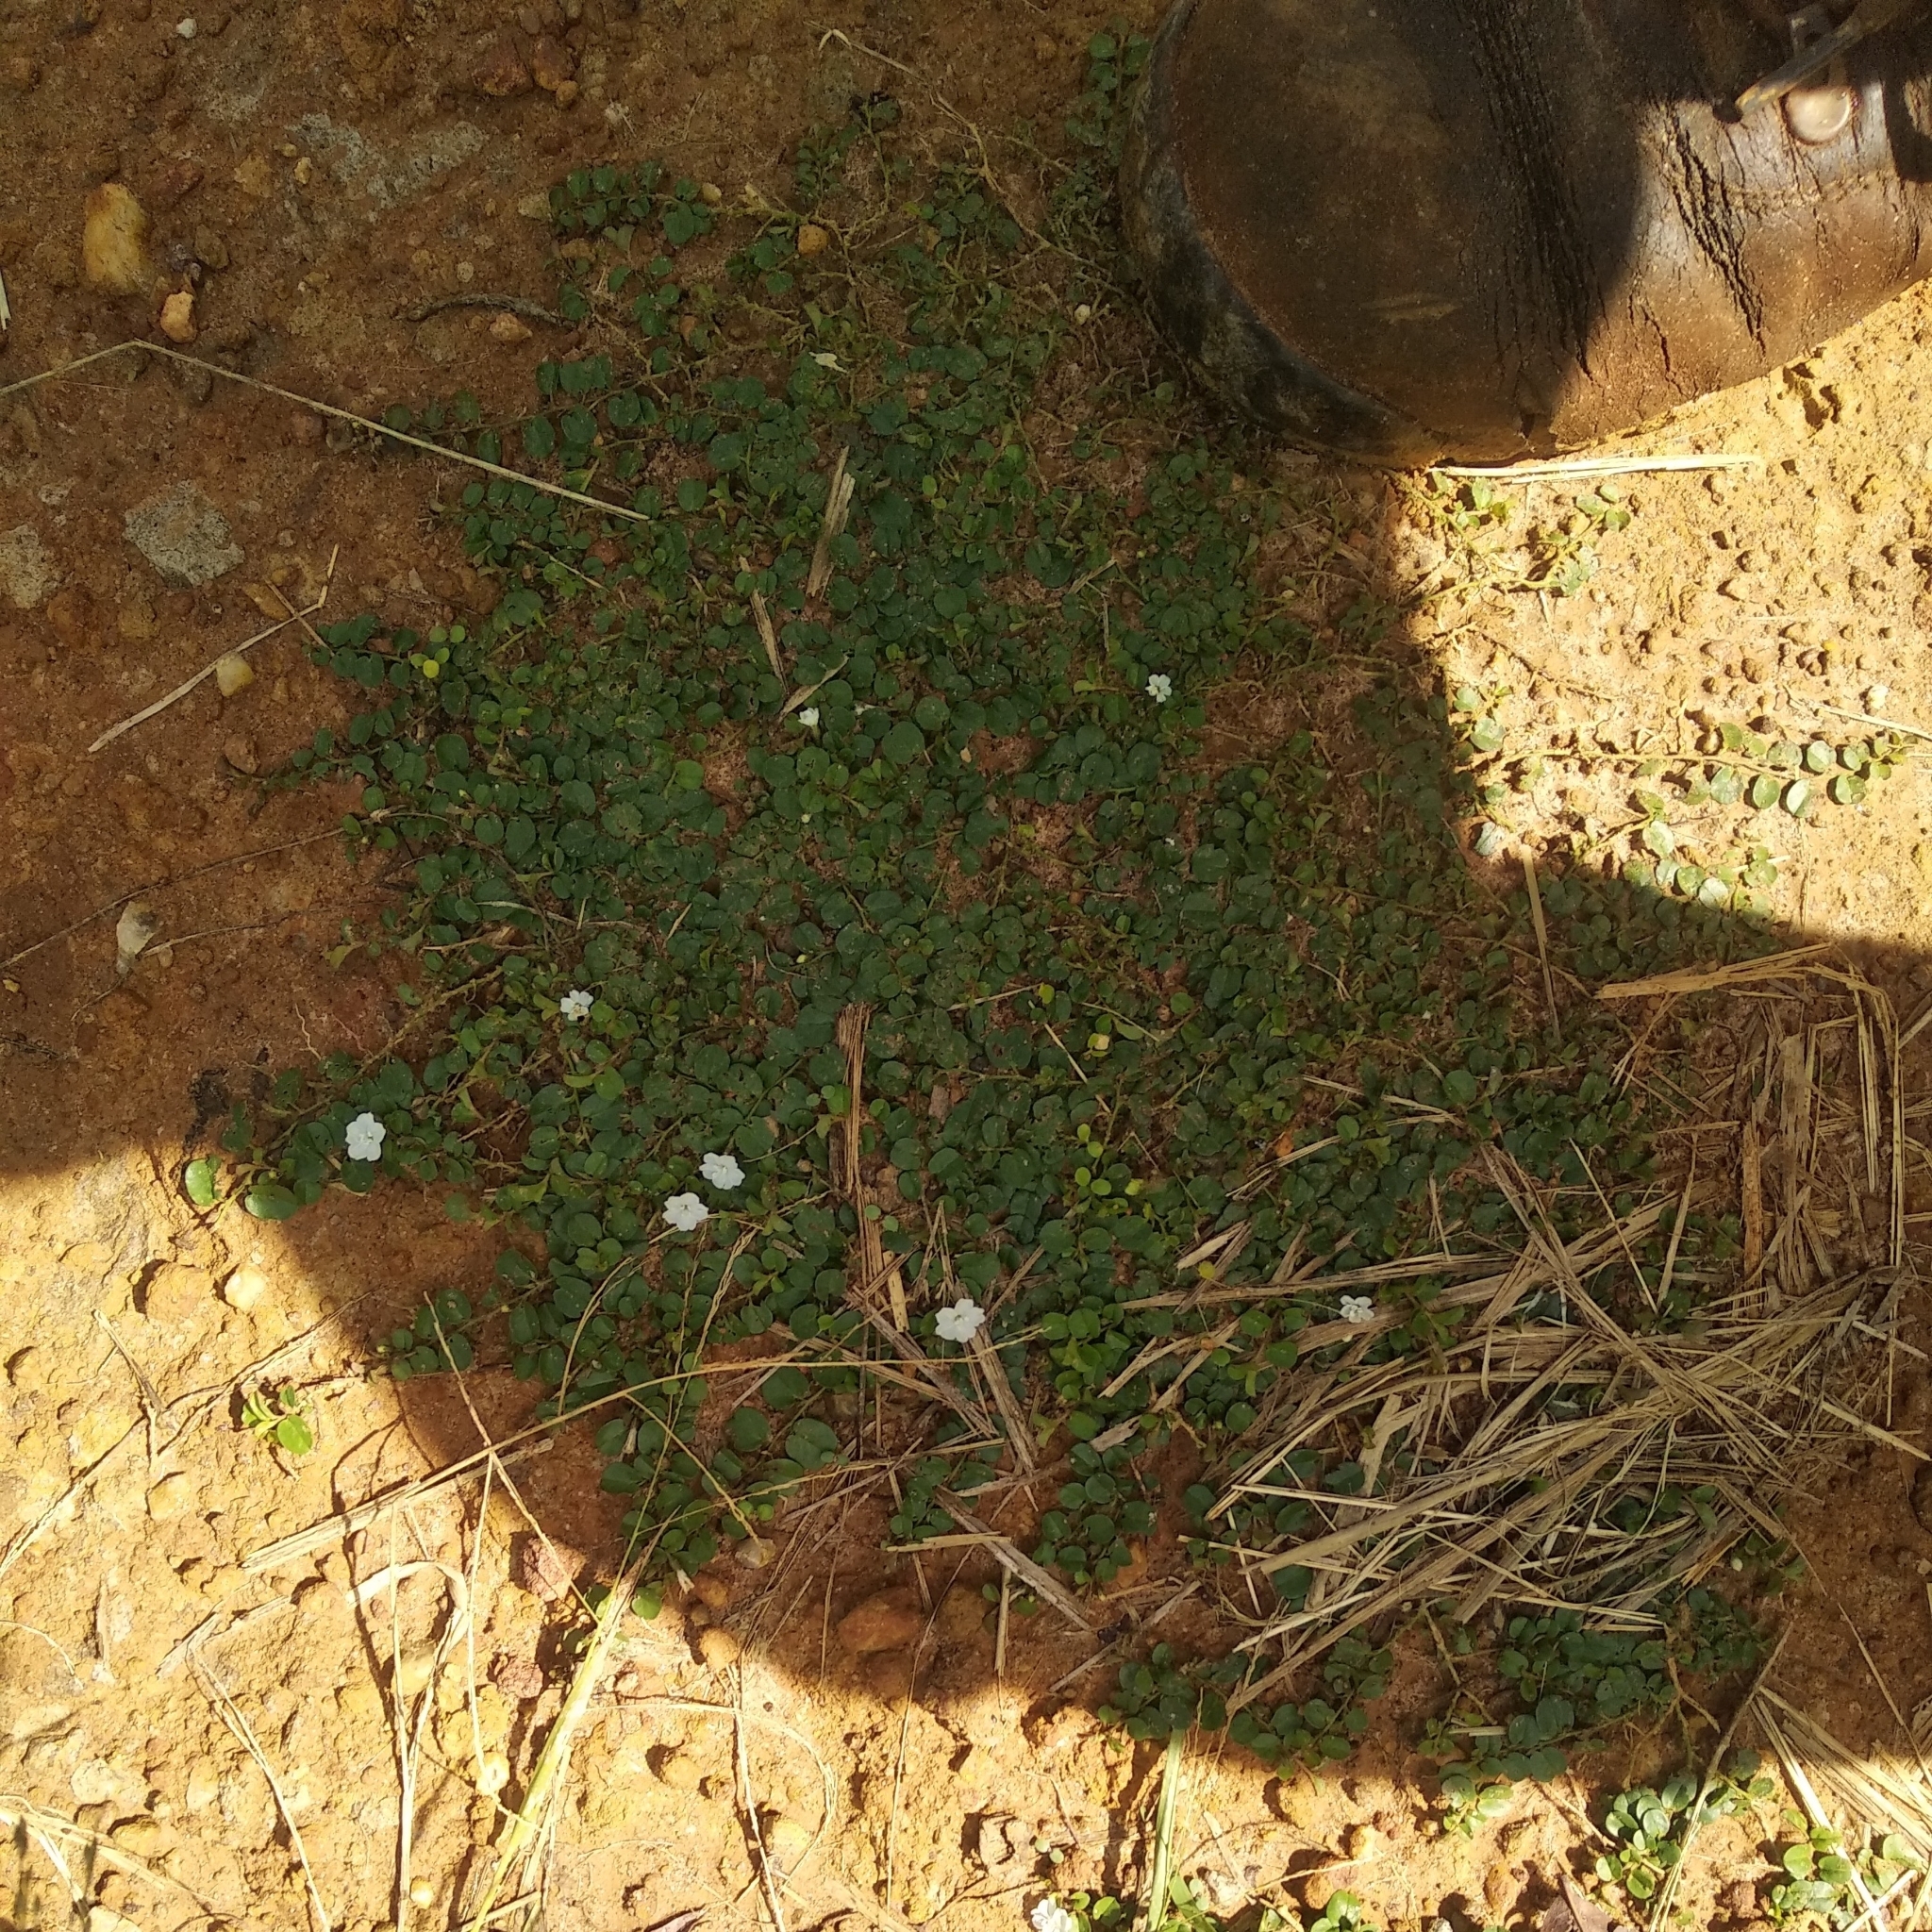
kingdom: Plantae
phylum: Tracheophyta
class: Magnoliopsida
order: Solanales
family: Convolvulaceae
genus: Evolvulus
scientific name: Evolvulus nummularius
